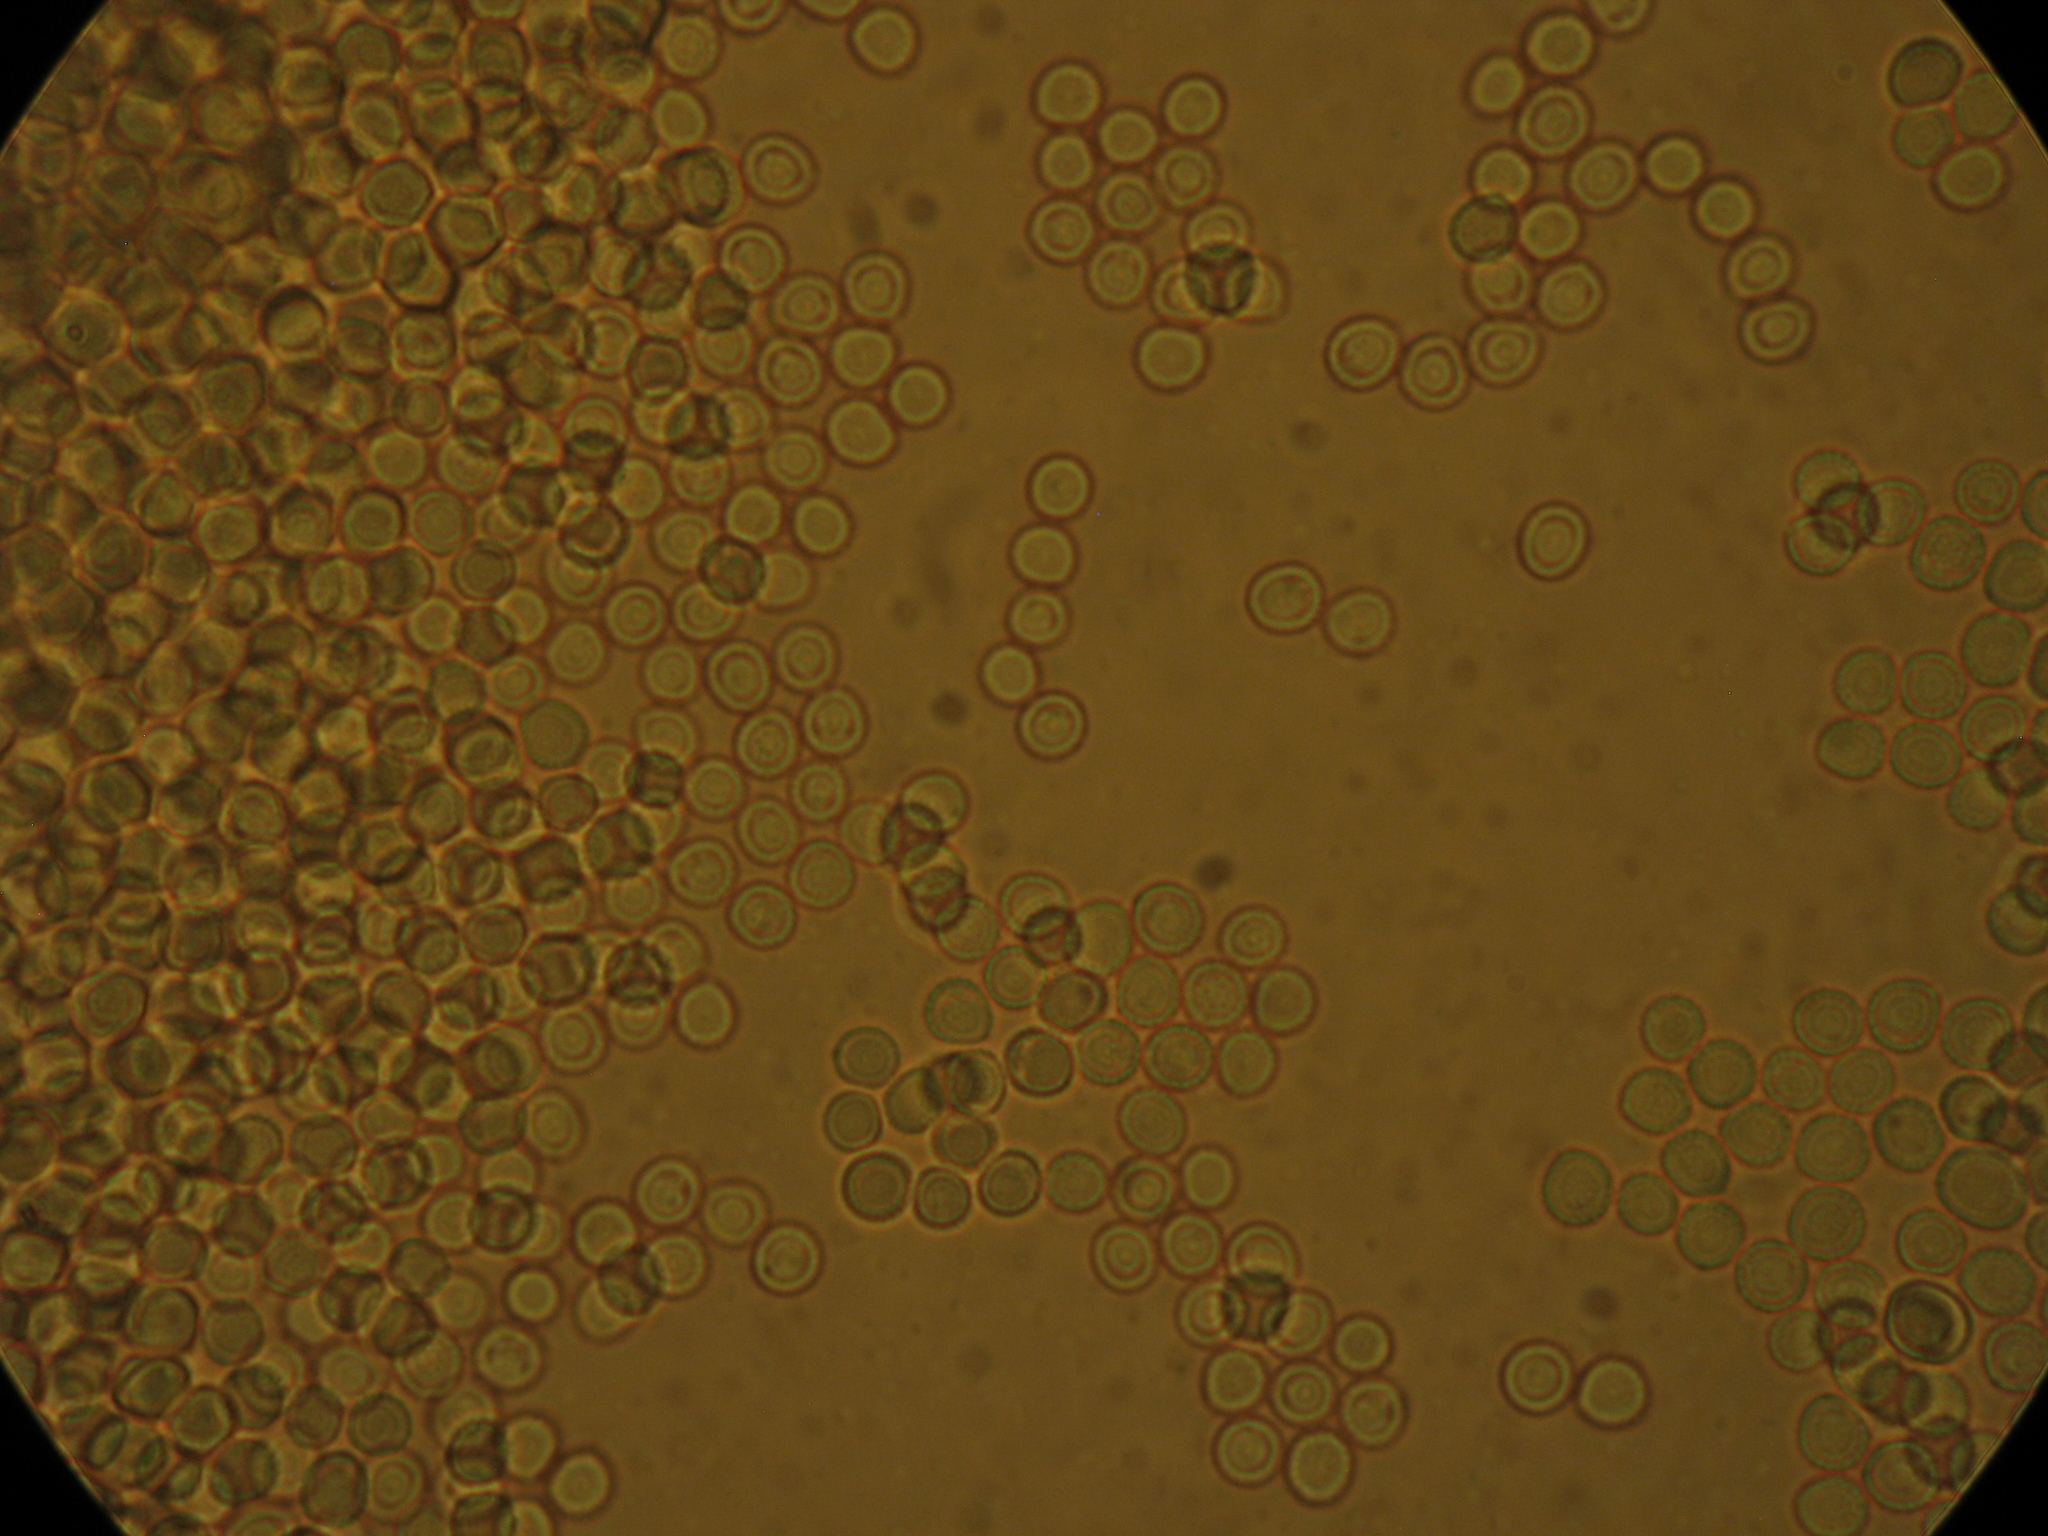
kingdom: Fungi
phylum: Basidiomycota
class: Agaricomycetes
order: Agaricales
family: Tricholomataceae
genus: Conchomyces
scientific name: Conchomyces bursiformis
